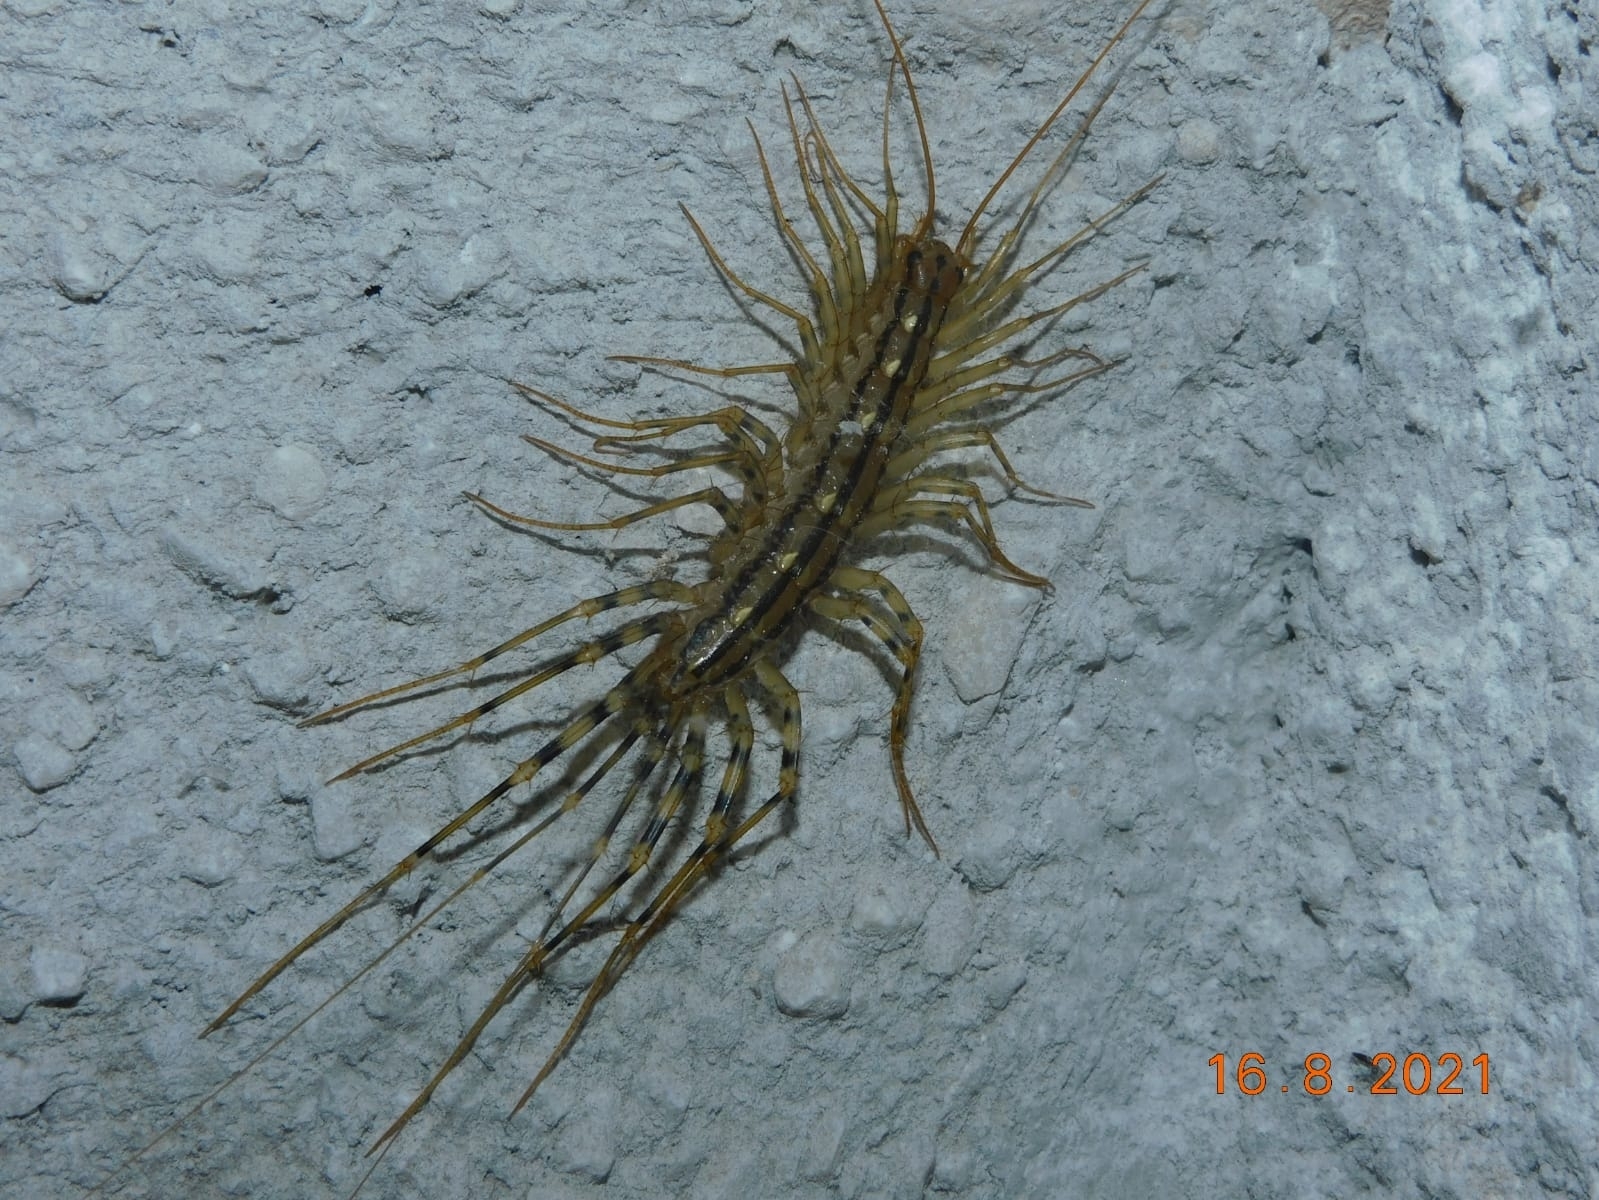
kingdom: Animalia
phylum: Arthropoda
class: Chilopoda
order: Scutigeromorpha
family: Scutigeridae
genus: Scutigera
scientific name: Scutigera coleoptrata
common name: House centipede
